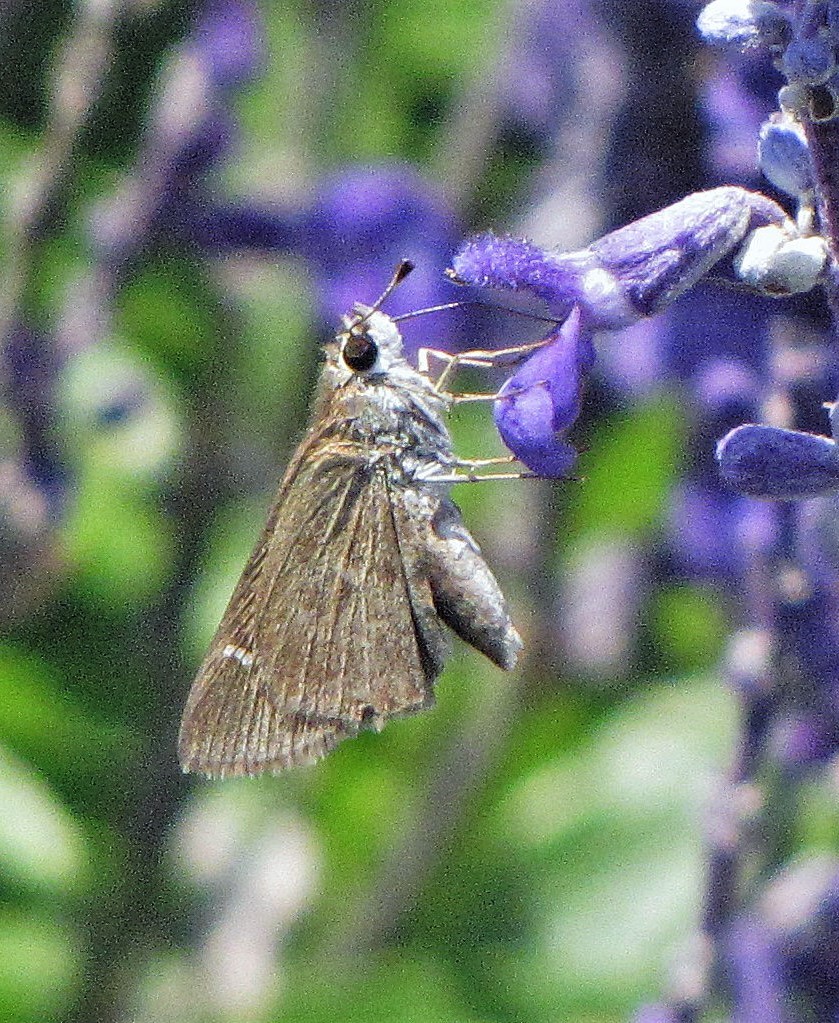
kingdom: Animalia
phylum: Arthropoda
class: Insecta
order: Lepidoptera
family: Hesperiidae
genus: Lerodea
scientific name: Lerodea eufala
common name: Eufala skipper
